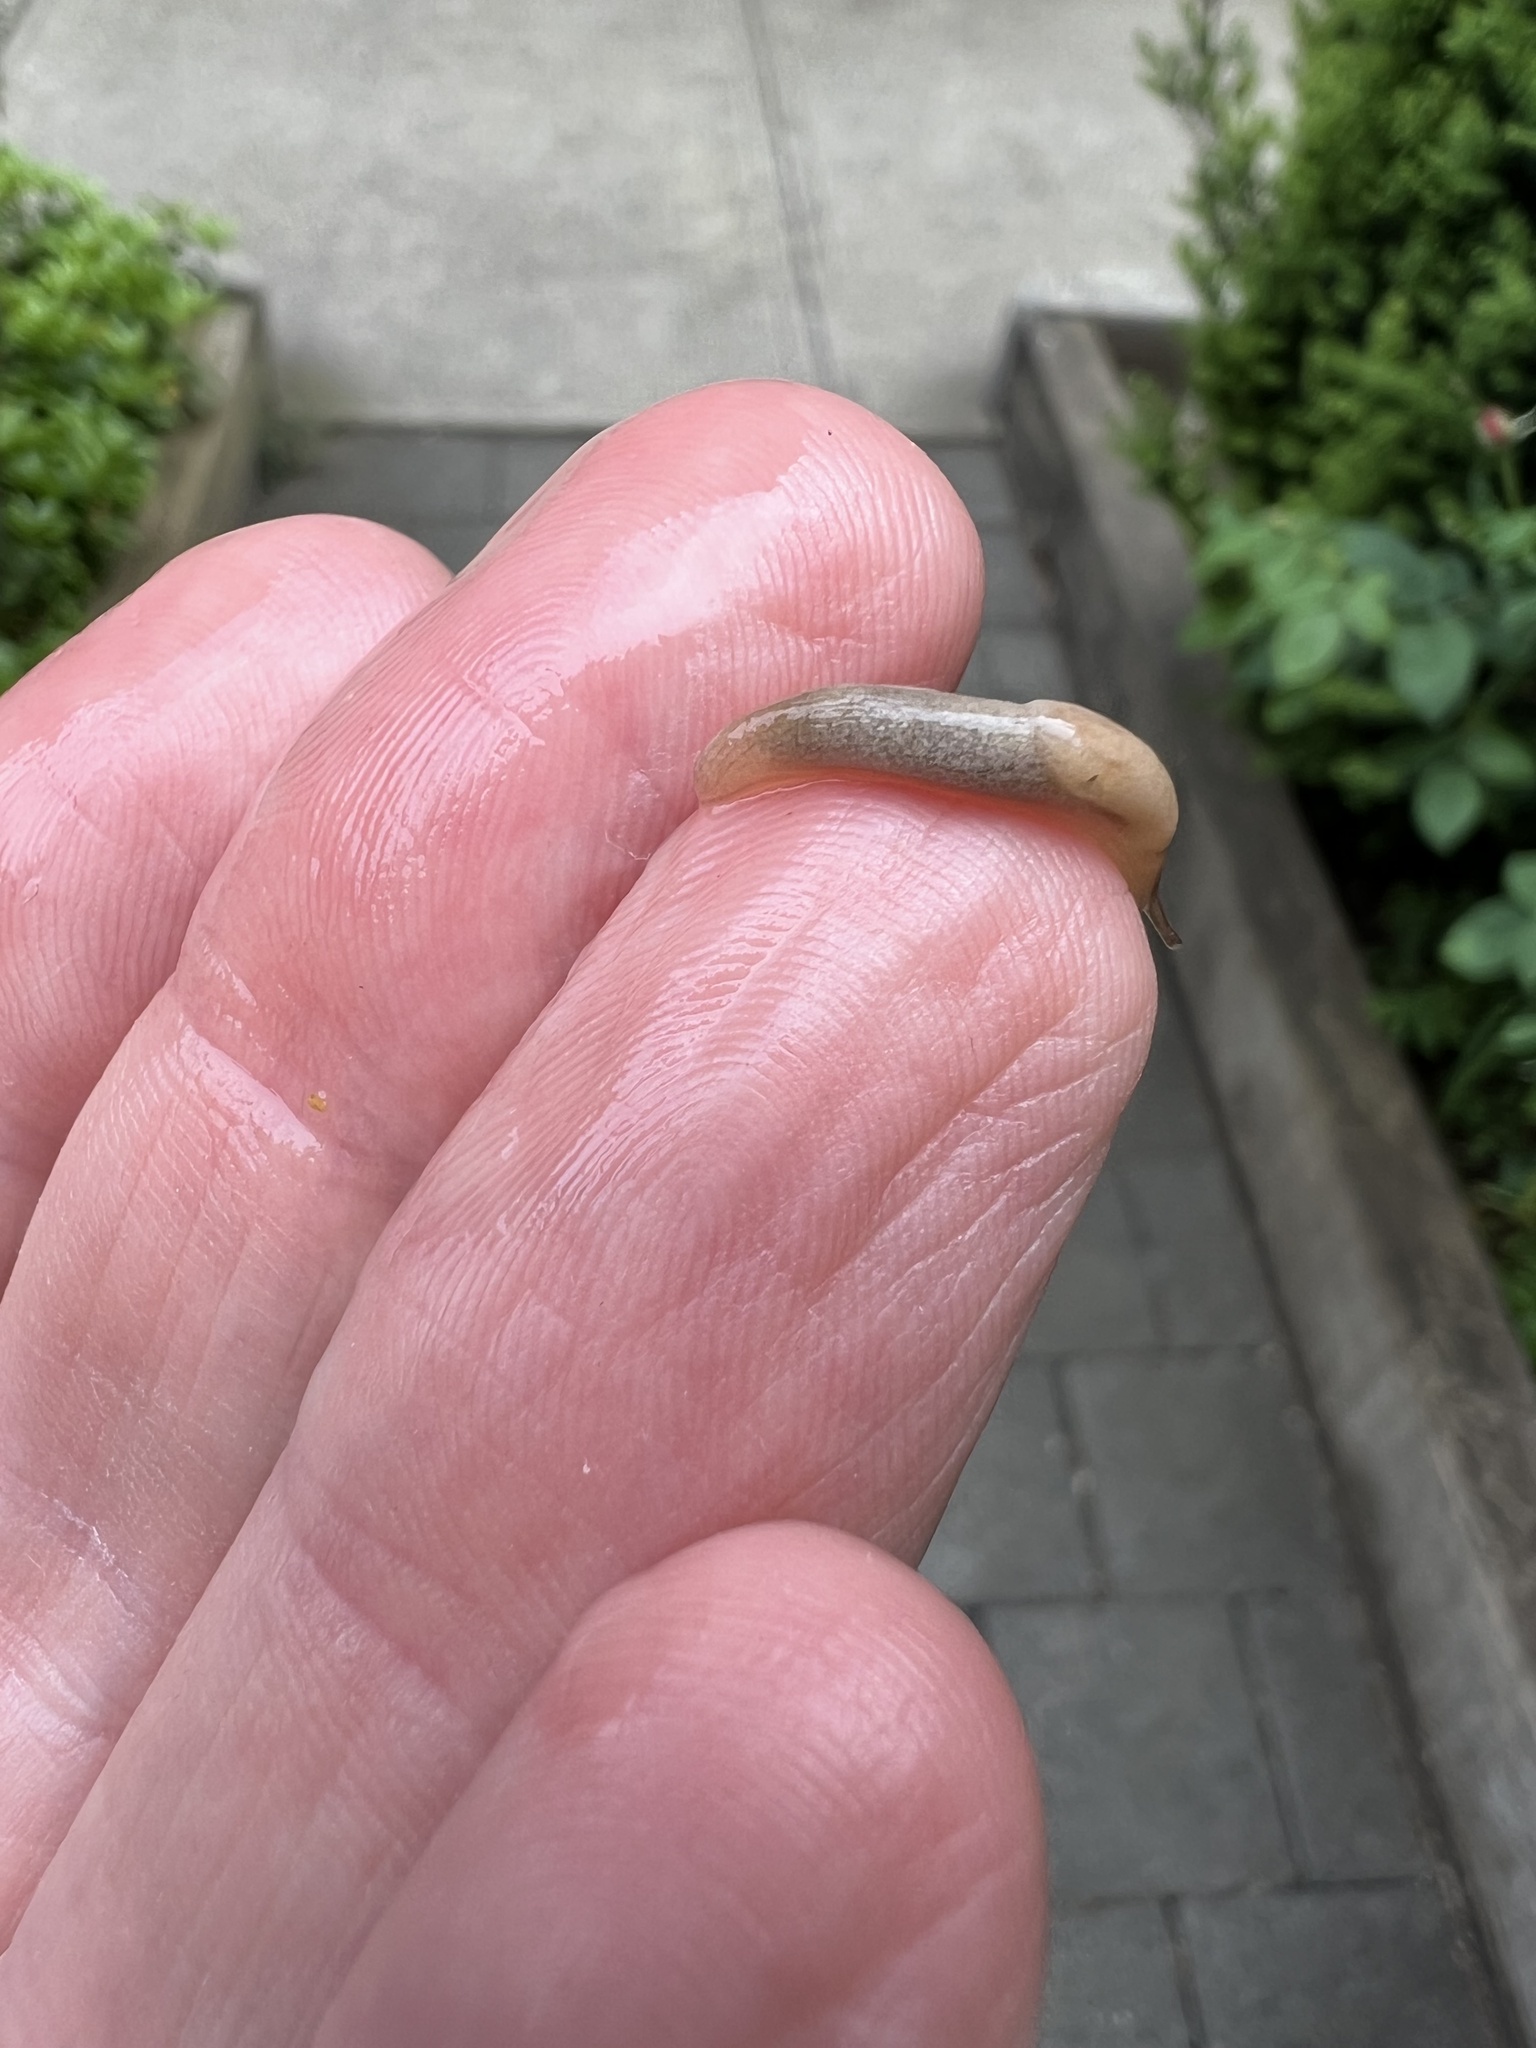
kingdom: Animalia
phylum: Mollusca
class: Gastropoda
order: Stylommatophora
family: Agriolimacidae
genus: Deroceras
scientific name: Deroceras reticulatum
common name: Gray field slug
